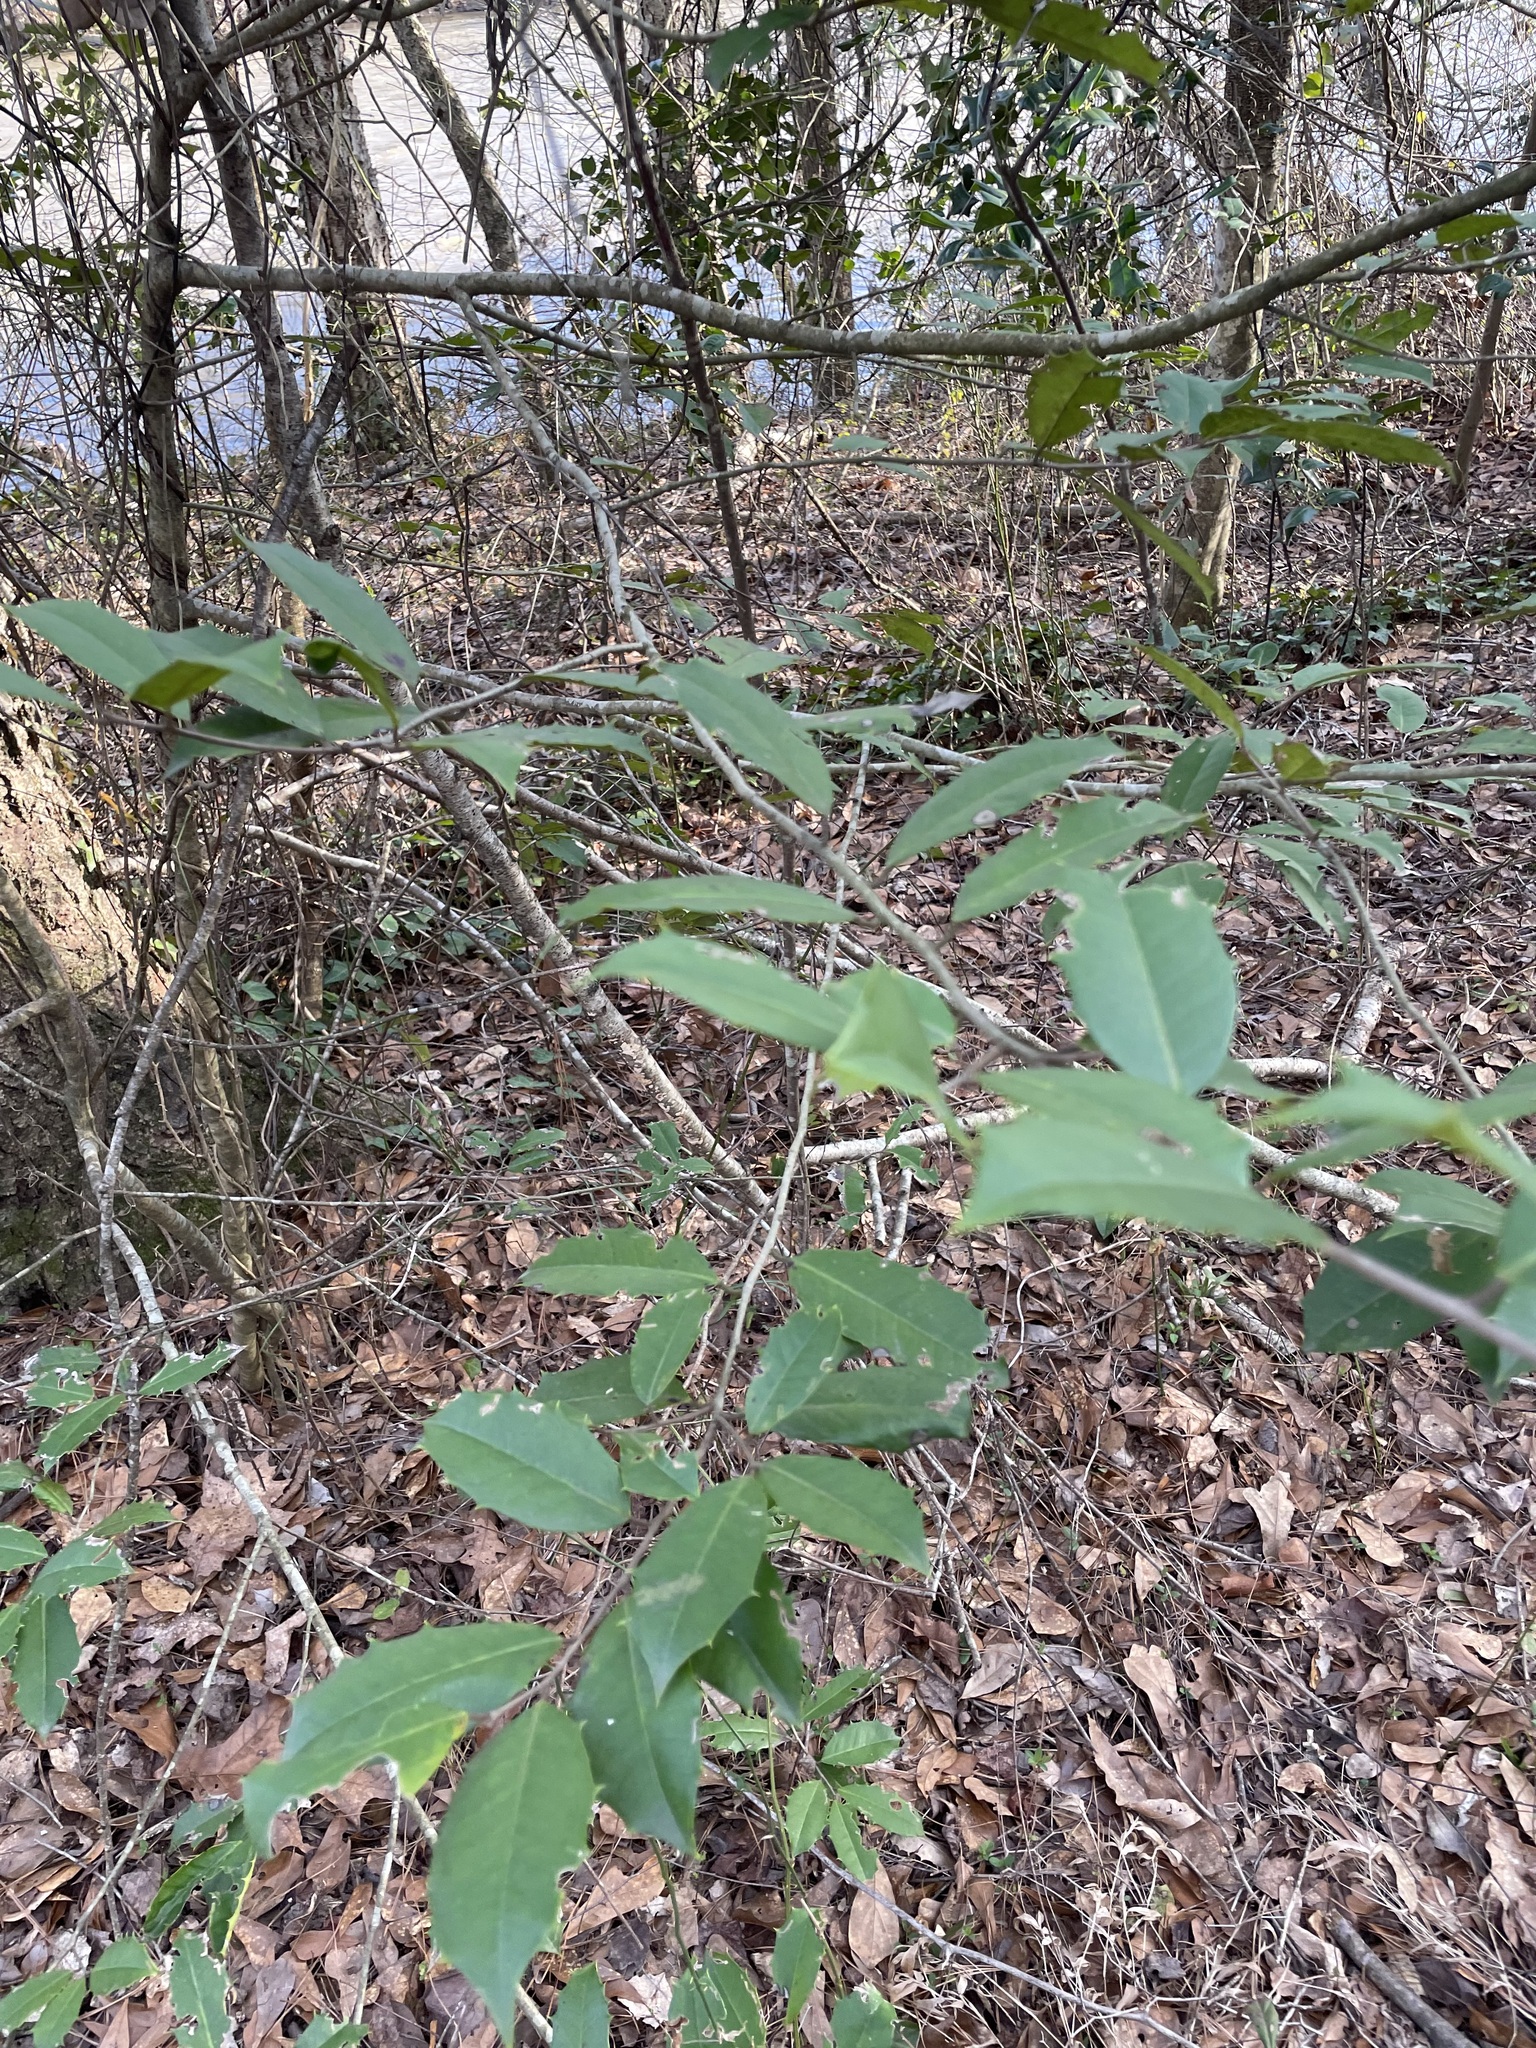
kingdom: Plantae
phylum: Tracheophyta
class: Magnoliopsida
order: Aquifoliales
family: Aquifoliaceae
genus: Ilex
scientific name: Ilex opaca
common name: American holly
